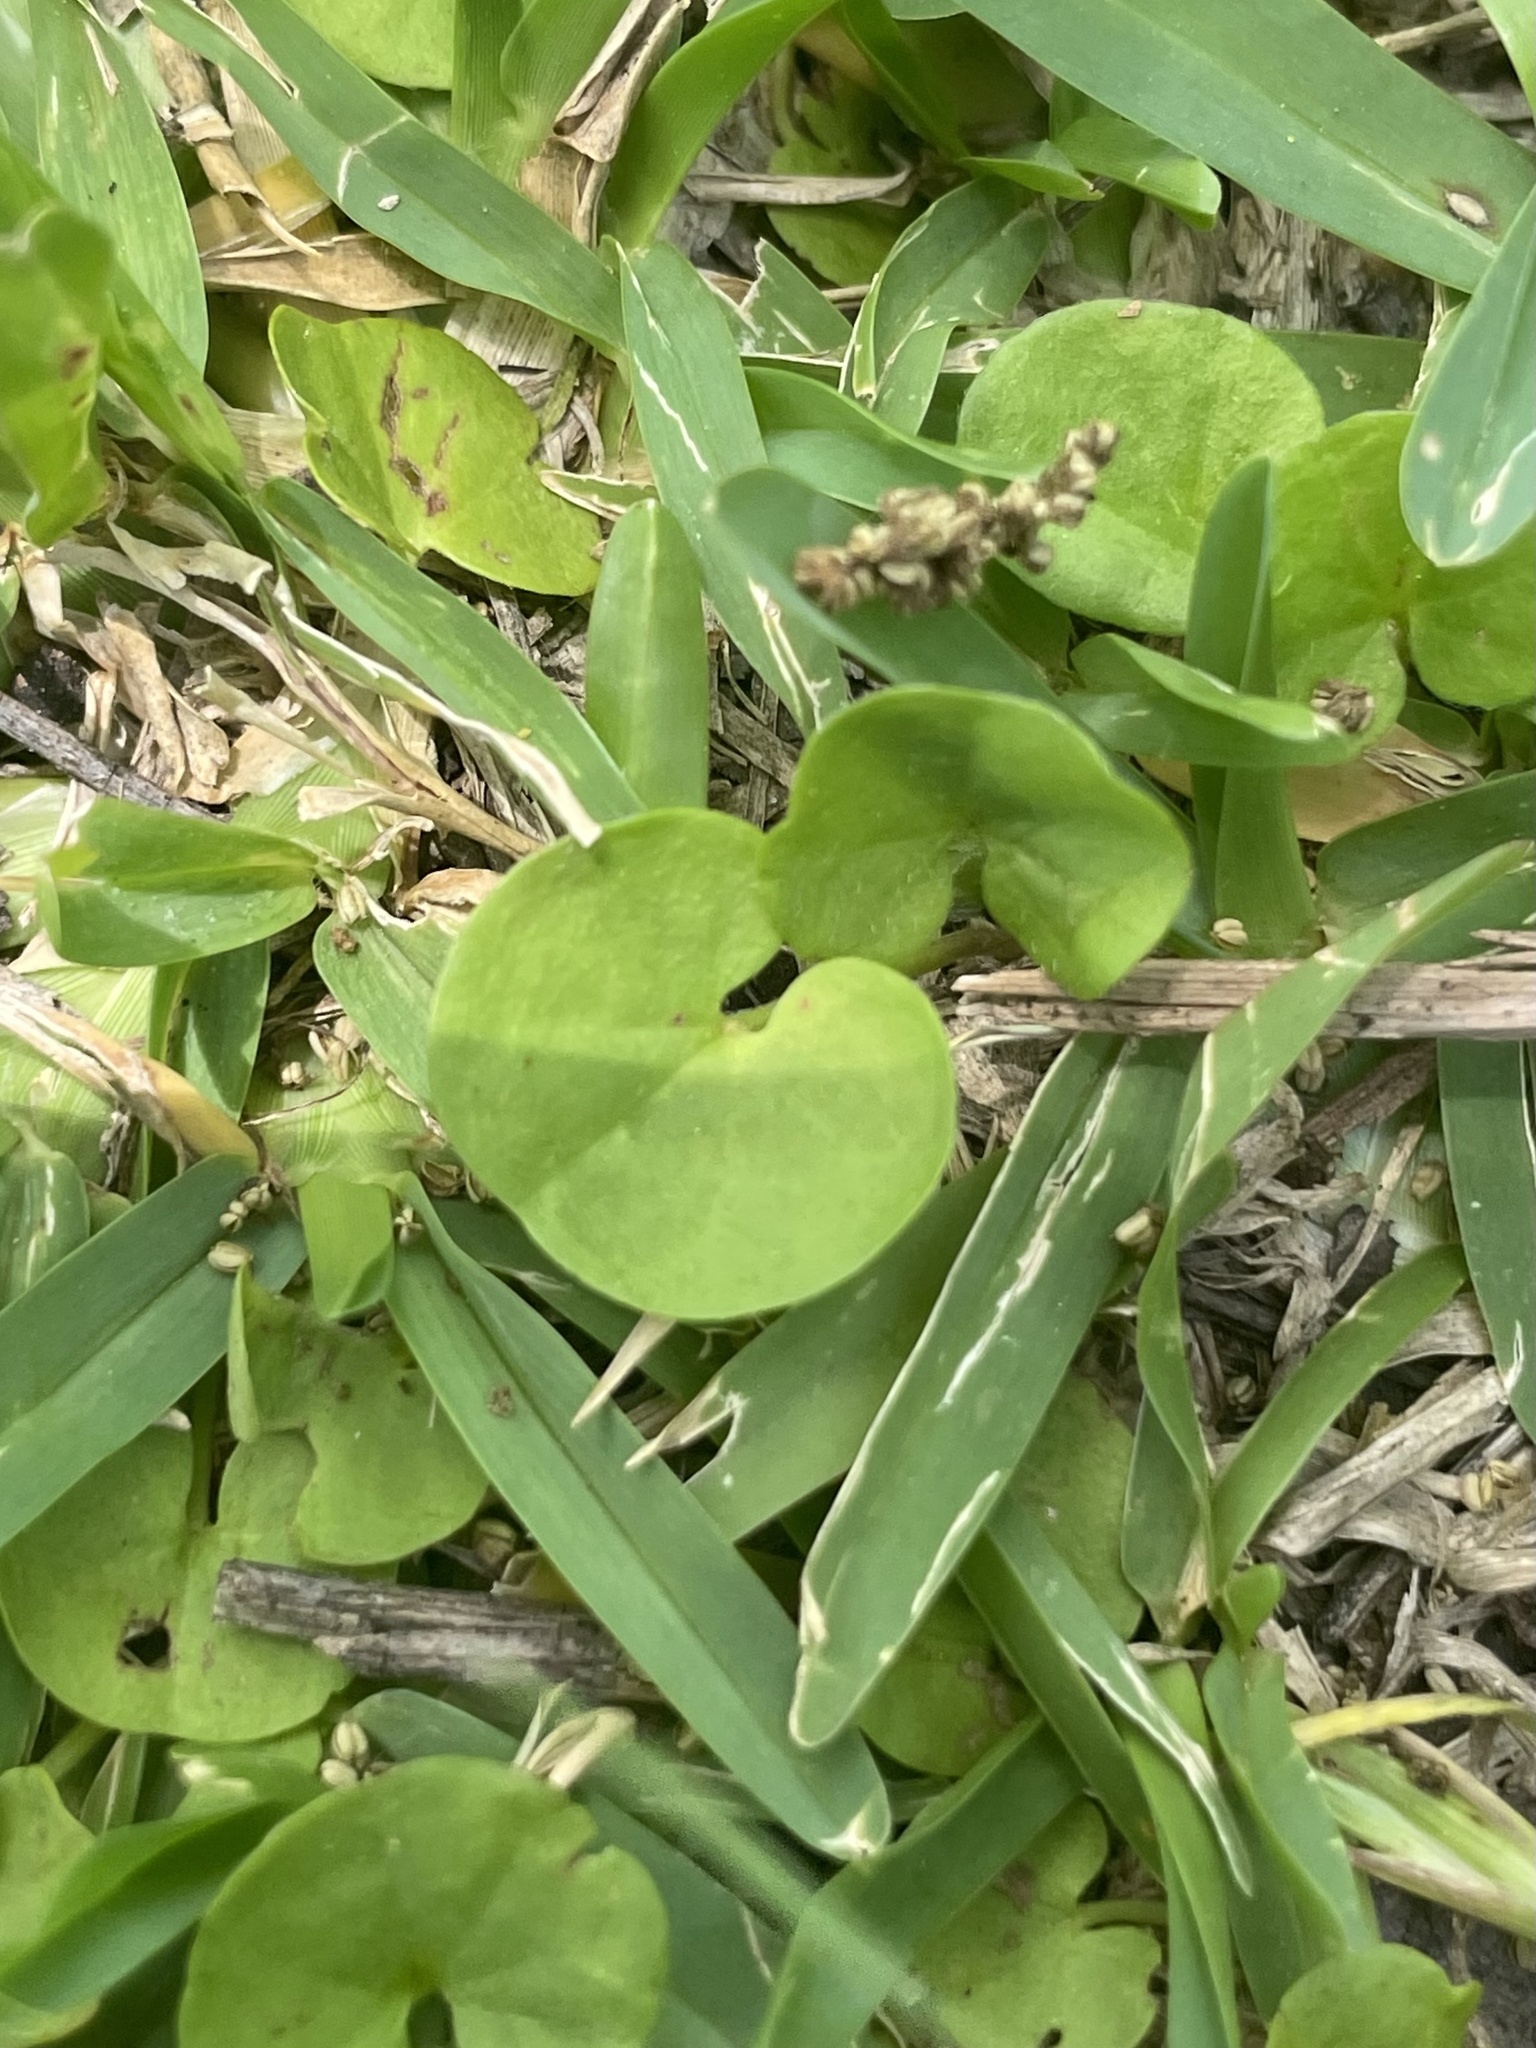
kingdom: Plantae
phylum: Tracheophyta
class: Magnoliopsida
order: Solanales
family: Convolvulaceae
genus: Dichondra
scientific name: Dichondra carolinensis
